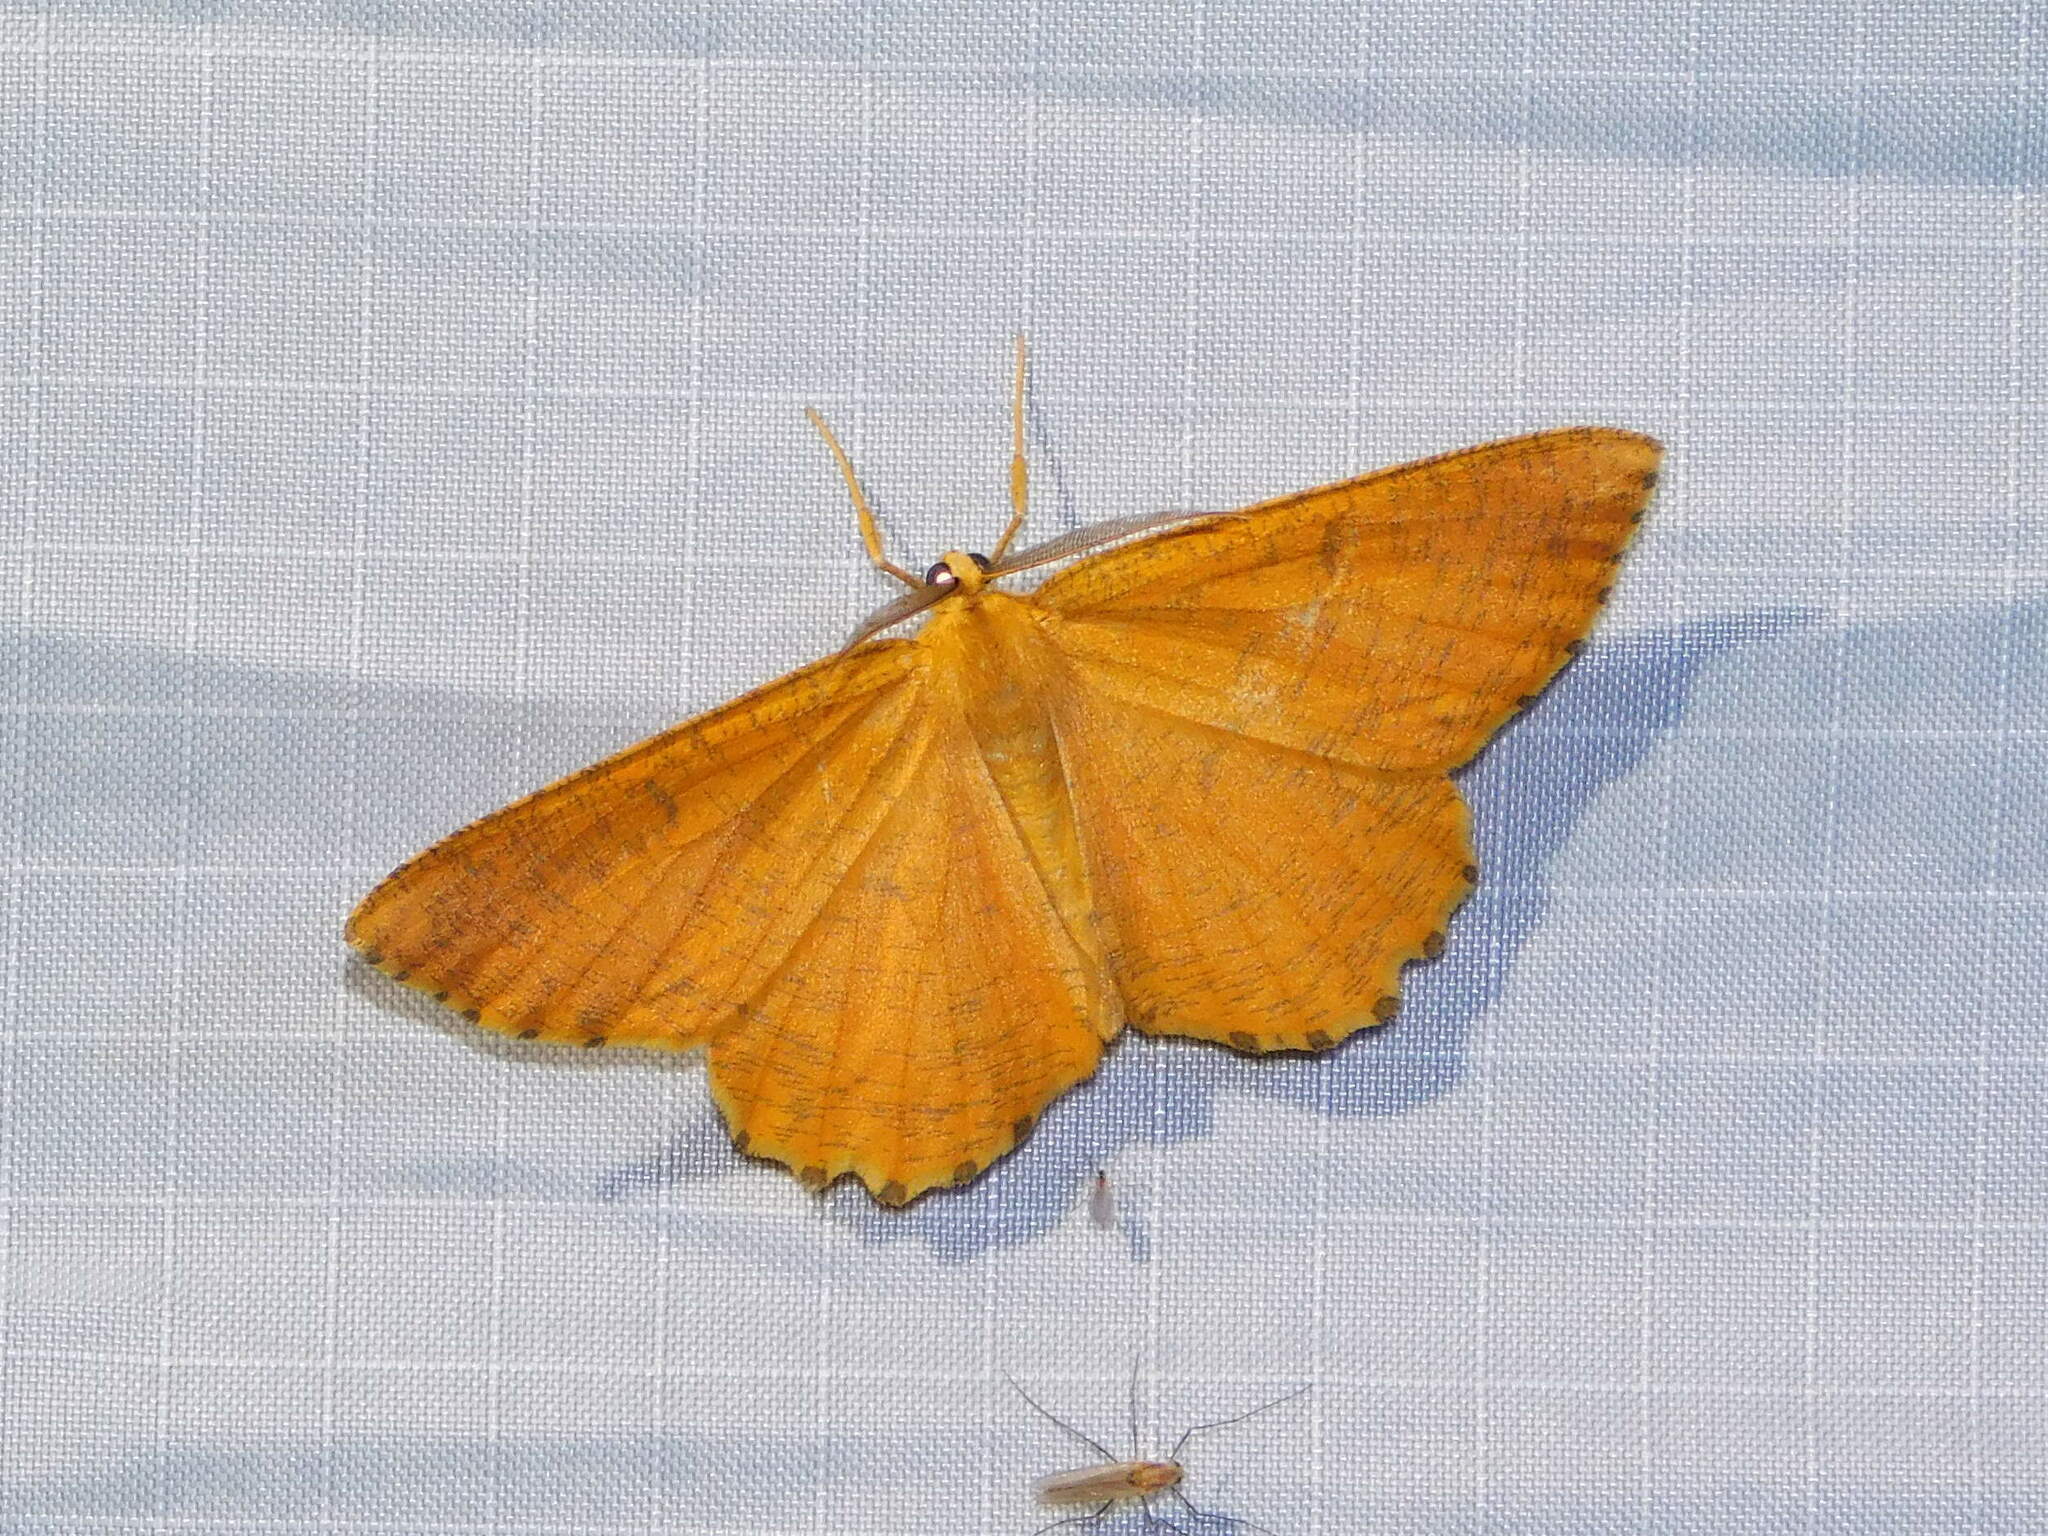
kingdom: Animalia
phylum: Arthropoda
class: Insecta
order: Lepidoptera
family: Geometridae
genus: Angerona
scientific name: Angerona prunaria
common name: Orange moth
